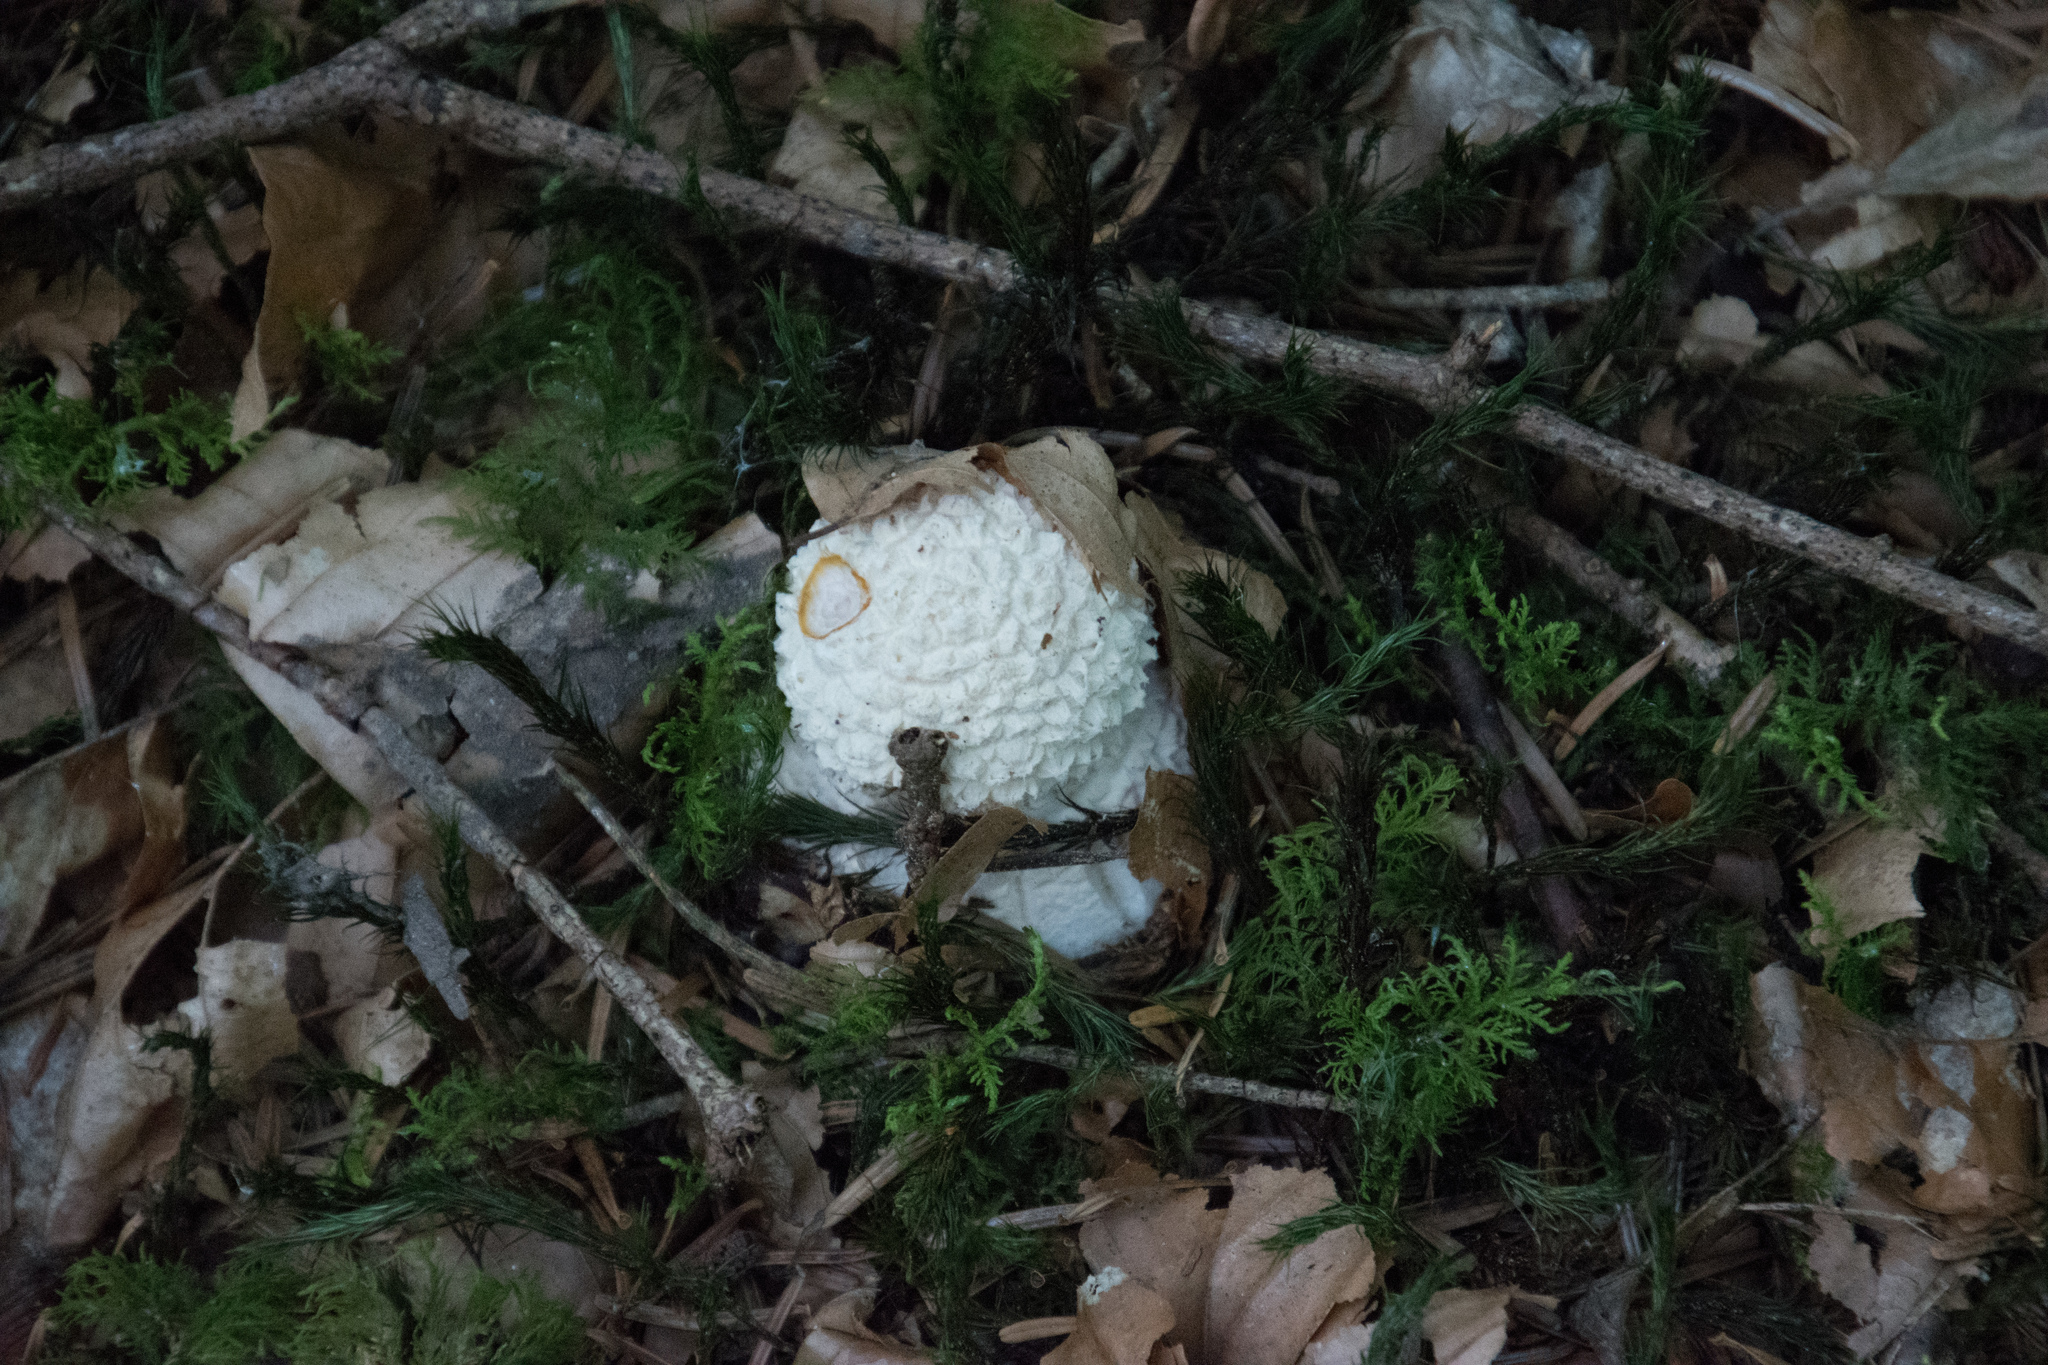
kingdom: Fungi
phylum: Basidiomycota
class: Agaricomycetes
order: Agaricales
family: Amanitaceae
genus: Amanita
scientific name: Amanita muscaria
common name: Fly agaric
